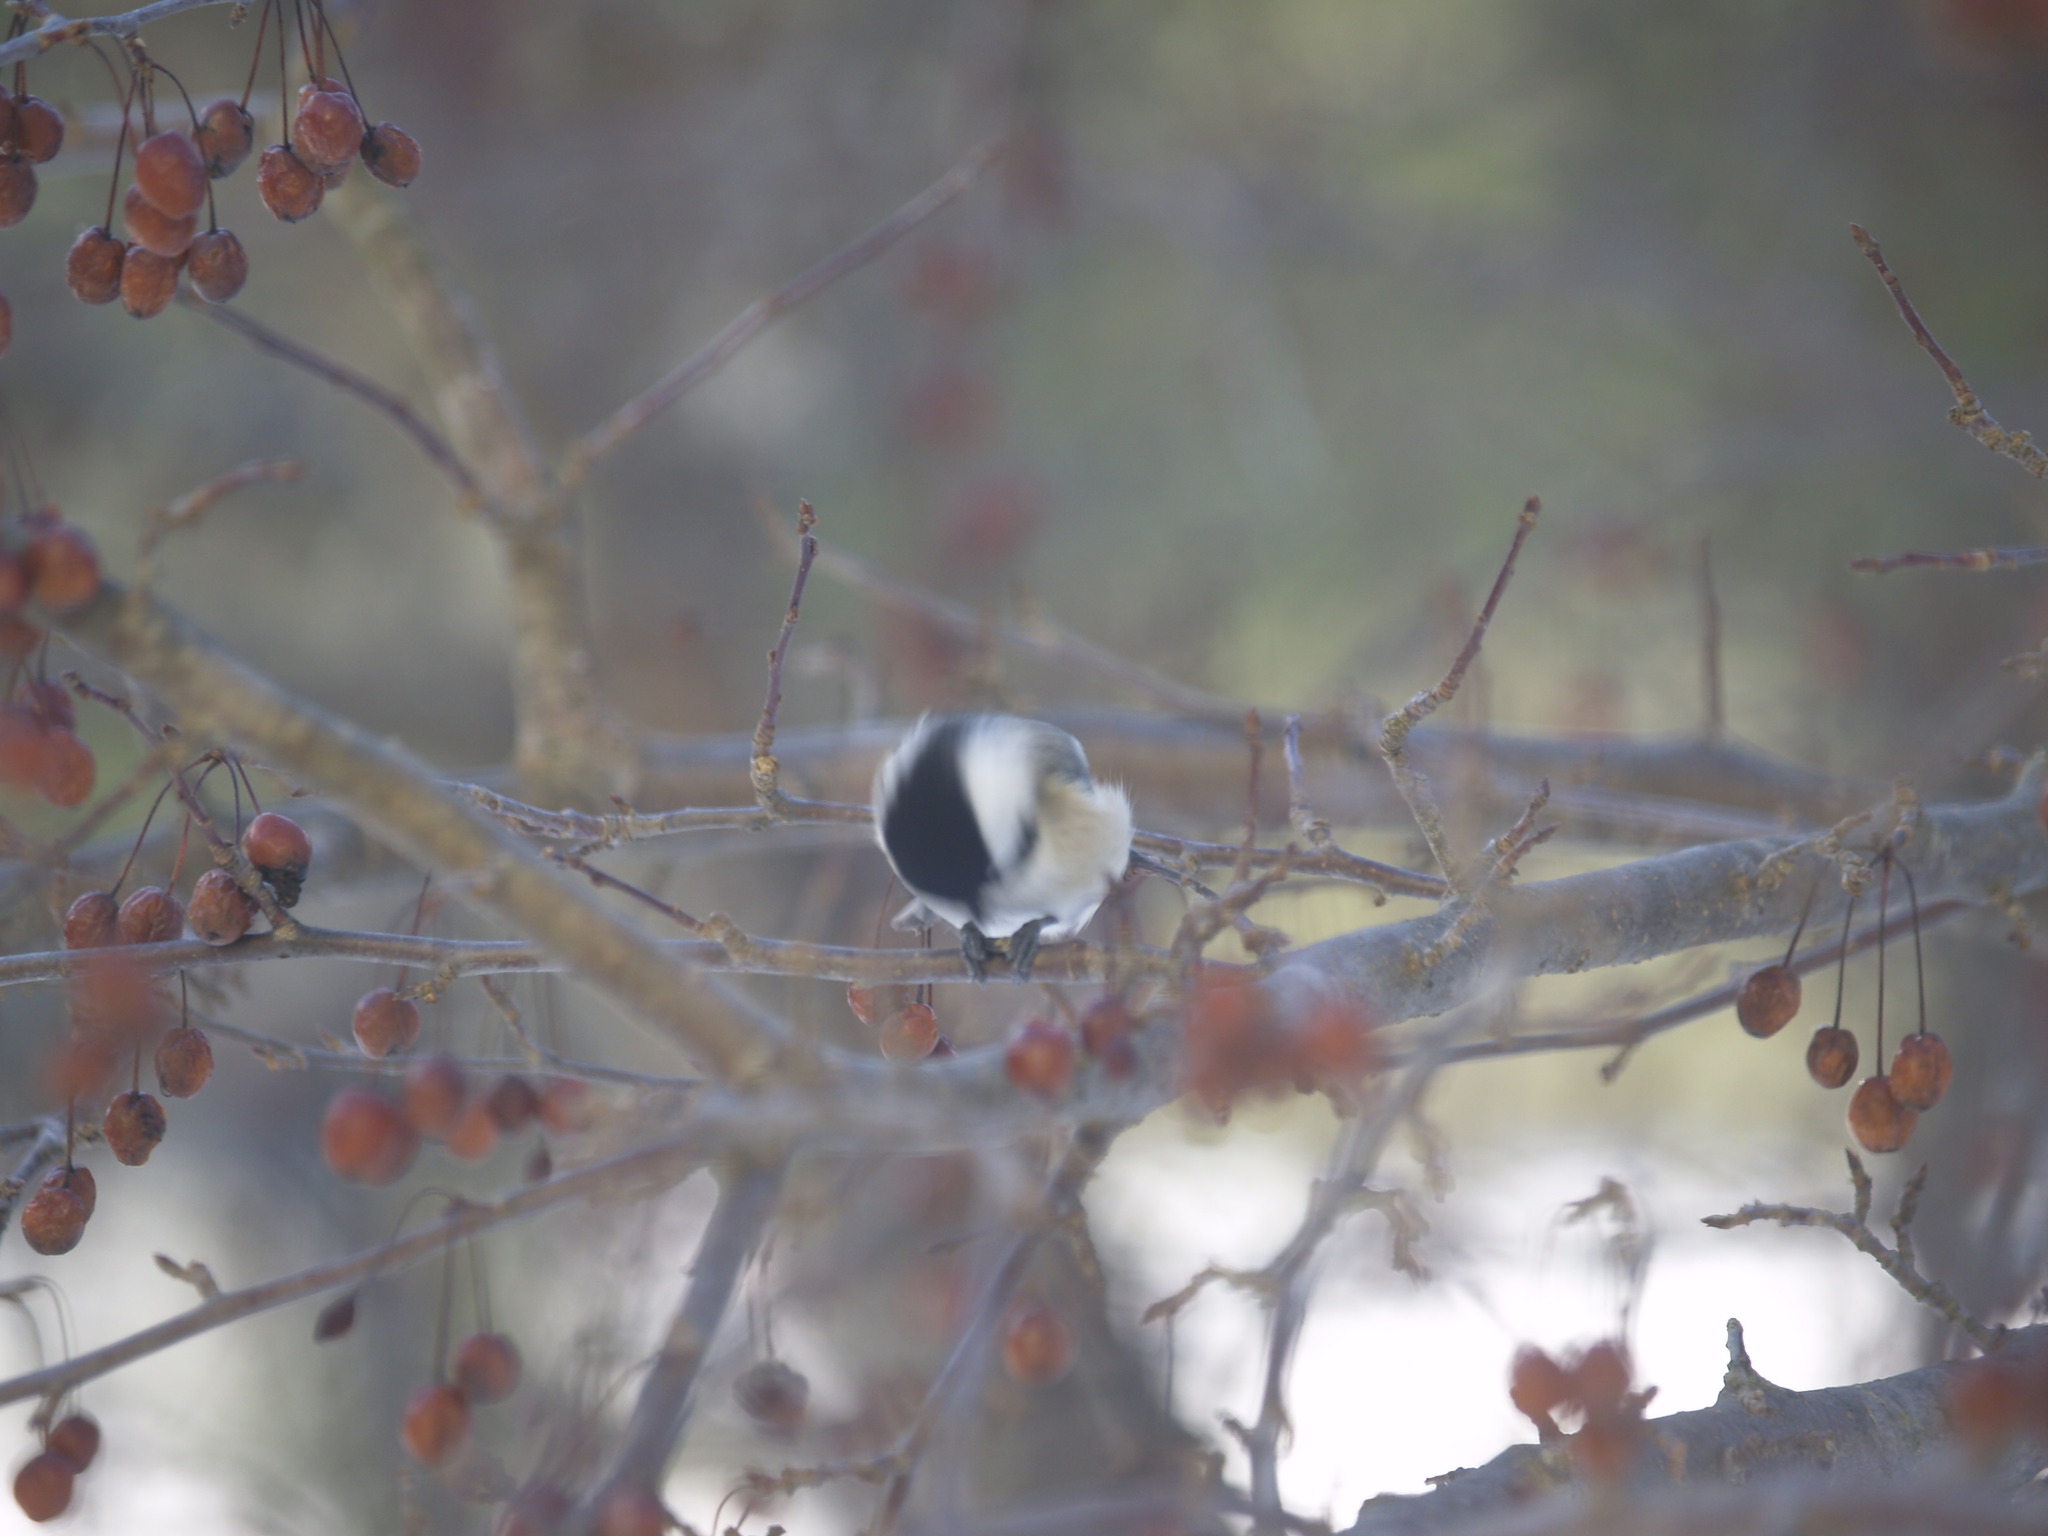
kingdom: Animalia
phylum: Chordata
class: Aves
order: Passeriformes
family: Paridae
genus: Poecile
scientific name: Poecile atricapillus
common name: Black-capped chickadee
